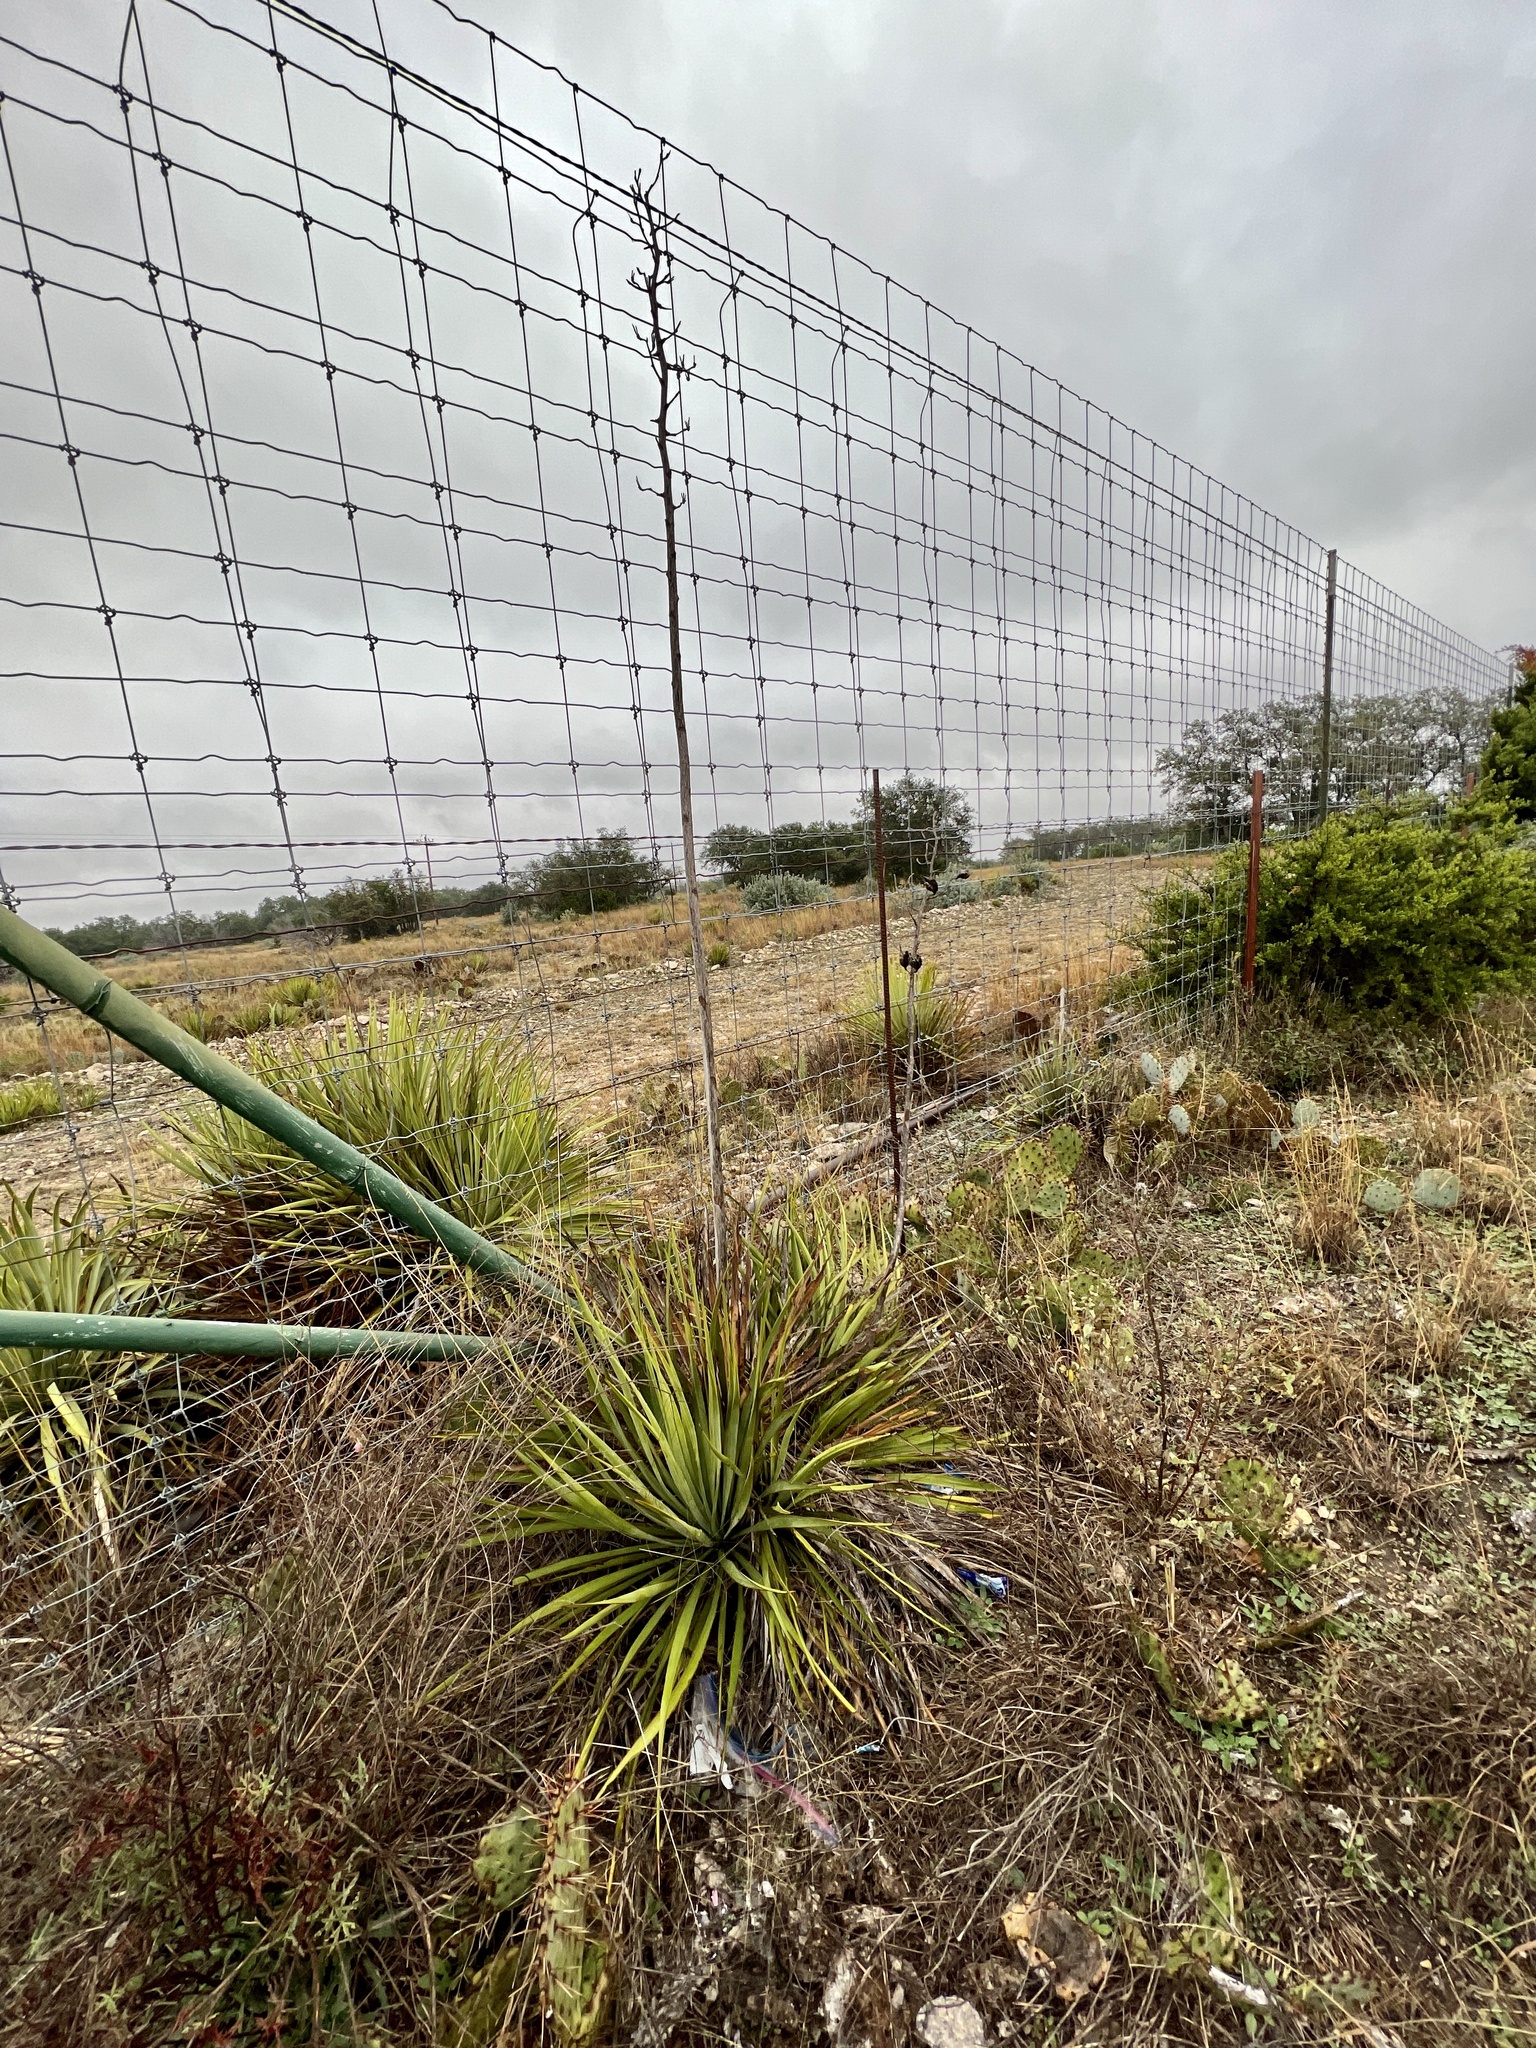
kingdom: Plantae
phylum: Tracheophyta
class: Liliopsida
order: Asparagales
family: Asparagaceae
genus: Yucca
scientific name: Yucca reverchonii
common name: San angelo yucca
